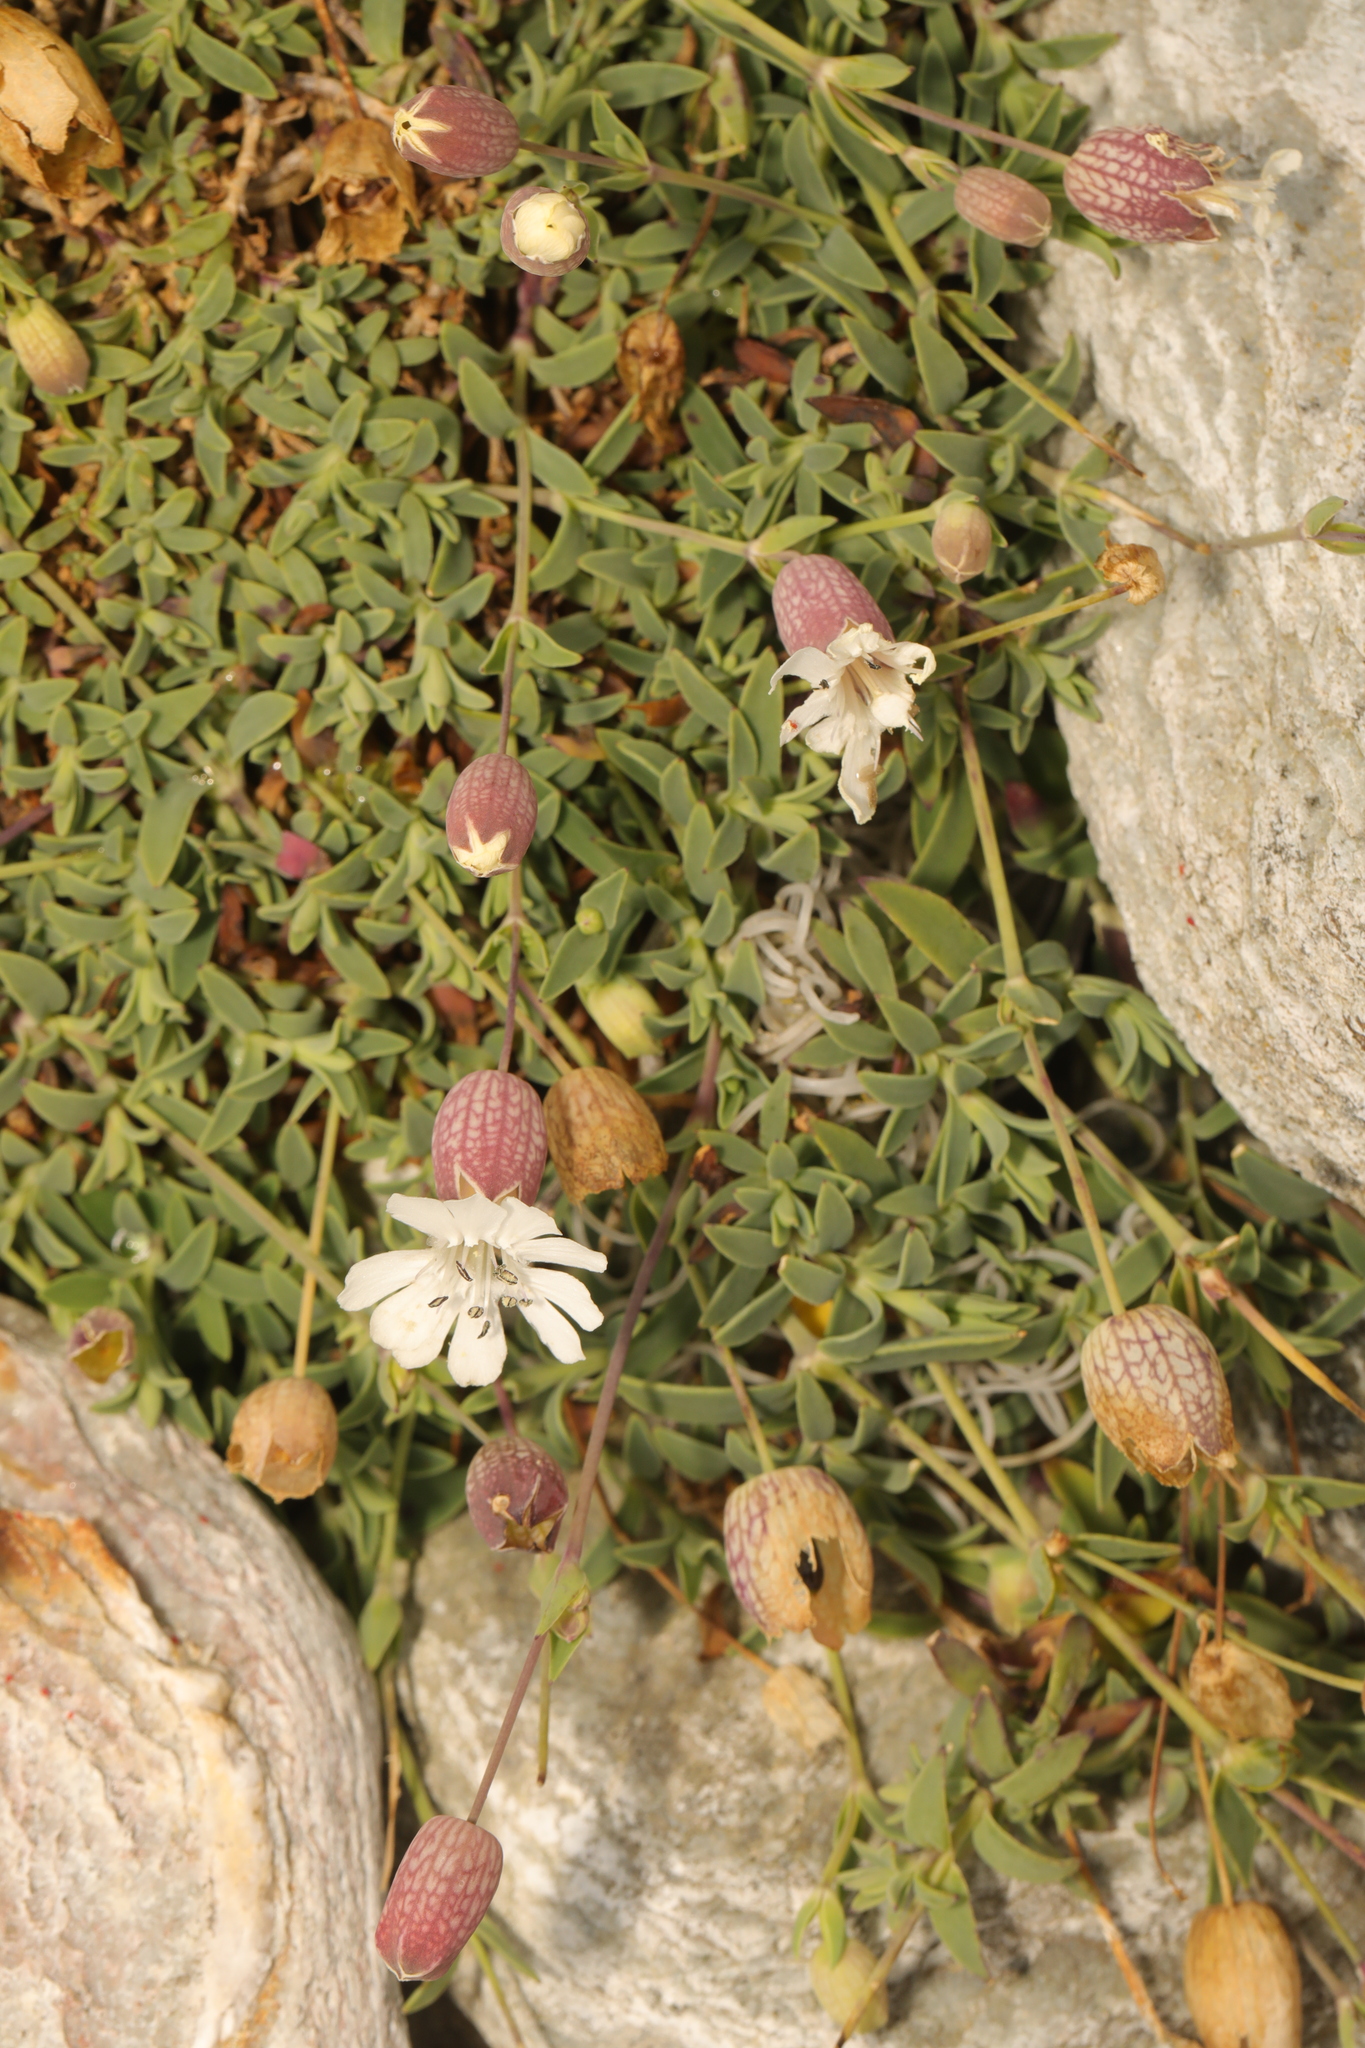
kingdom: Plantae
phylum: Tracheophyta
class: Magnoliopsida
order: Caryophyllales
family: Caryophyllaceae
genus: Silene
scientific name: Silene uniflora
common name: Sea campion
